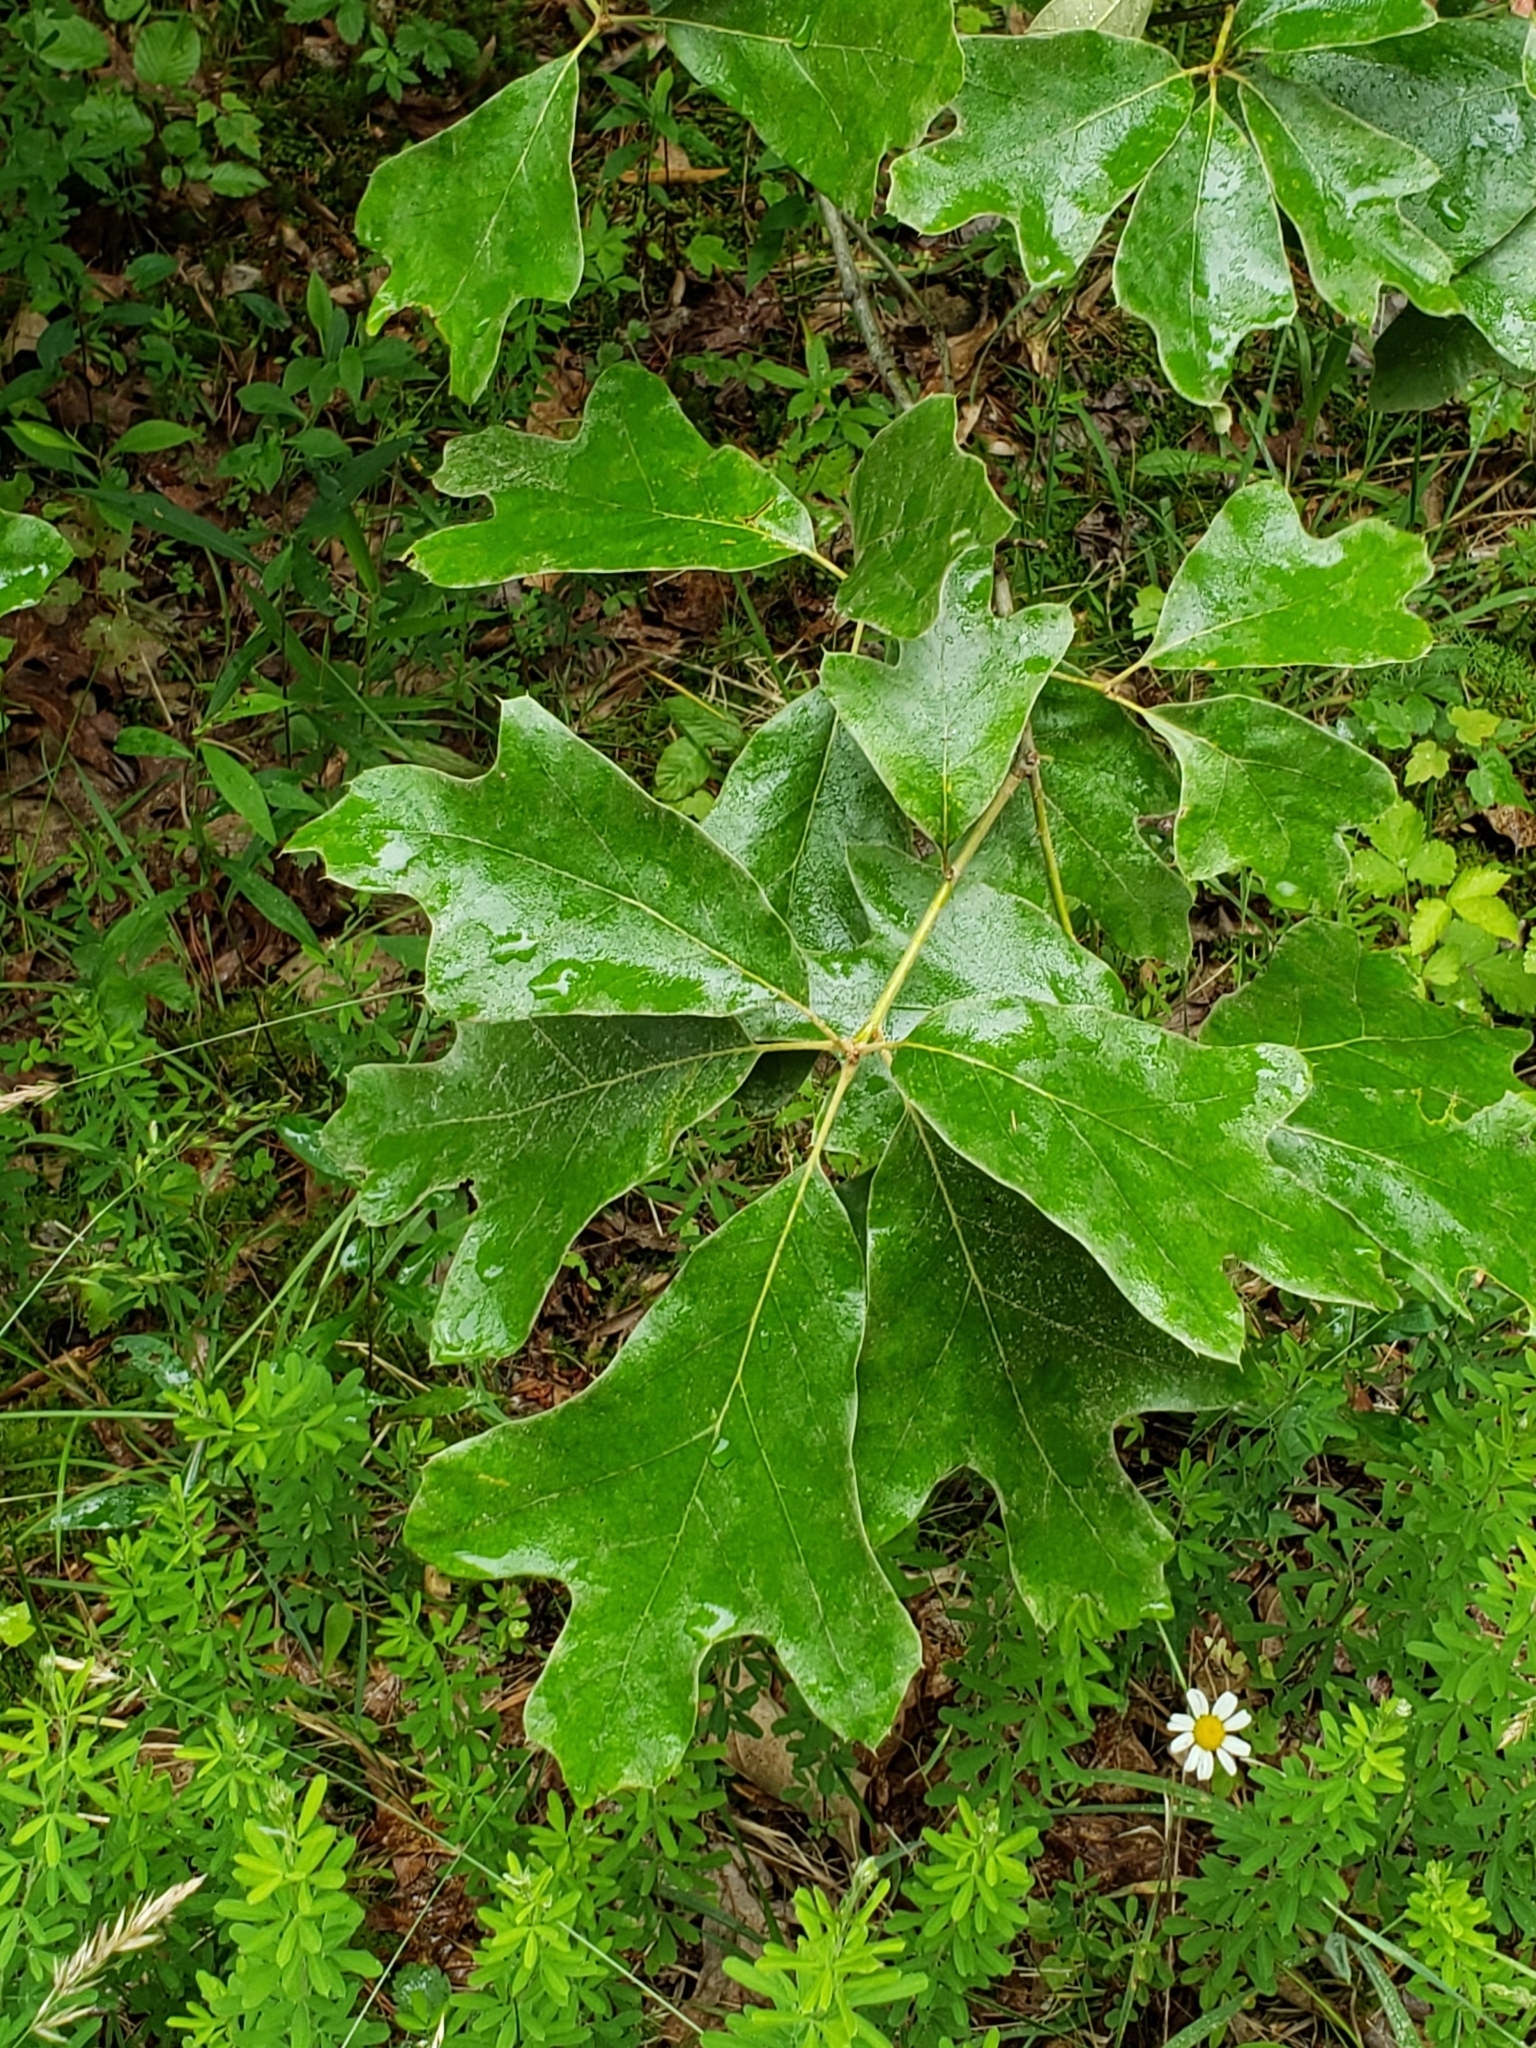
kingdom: Plantae
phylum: Tracheophyta
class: Magnoliopsida
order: Fagales
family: Fagaceae
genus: Quercus
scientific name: Quercus falcata
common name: Southern red oak
